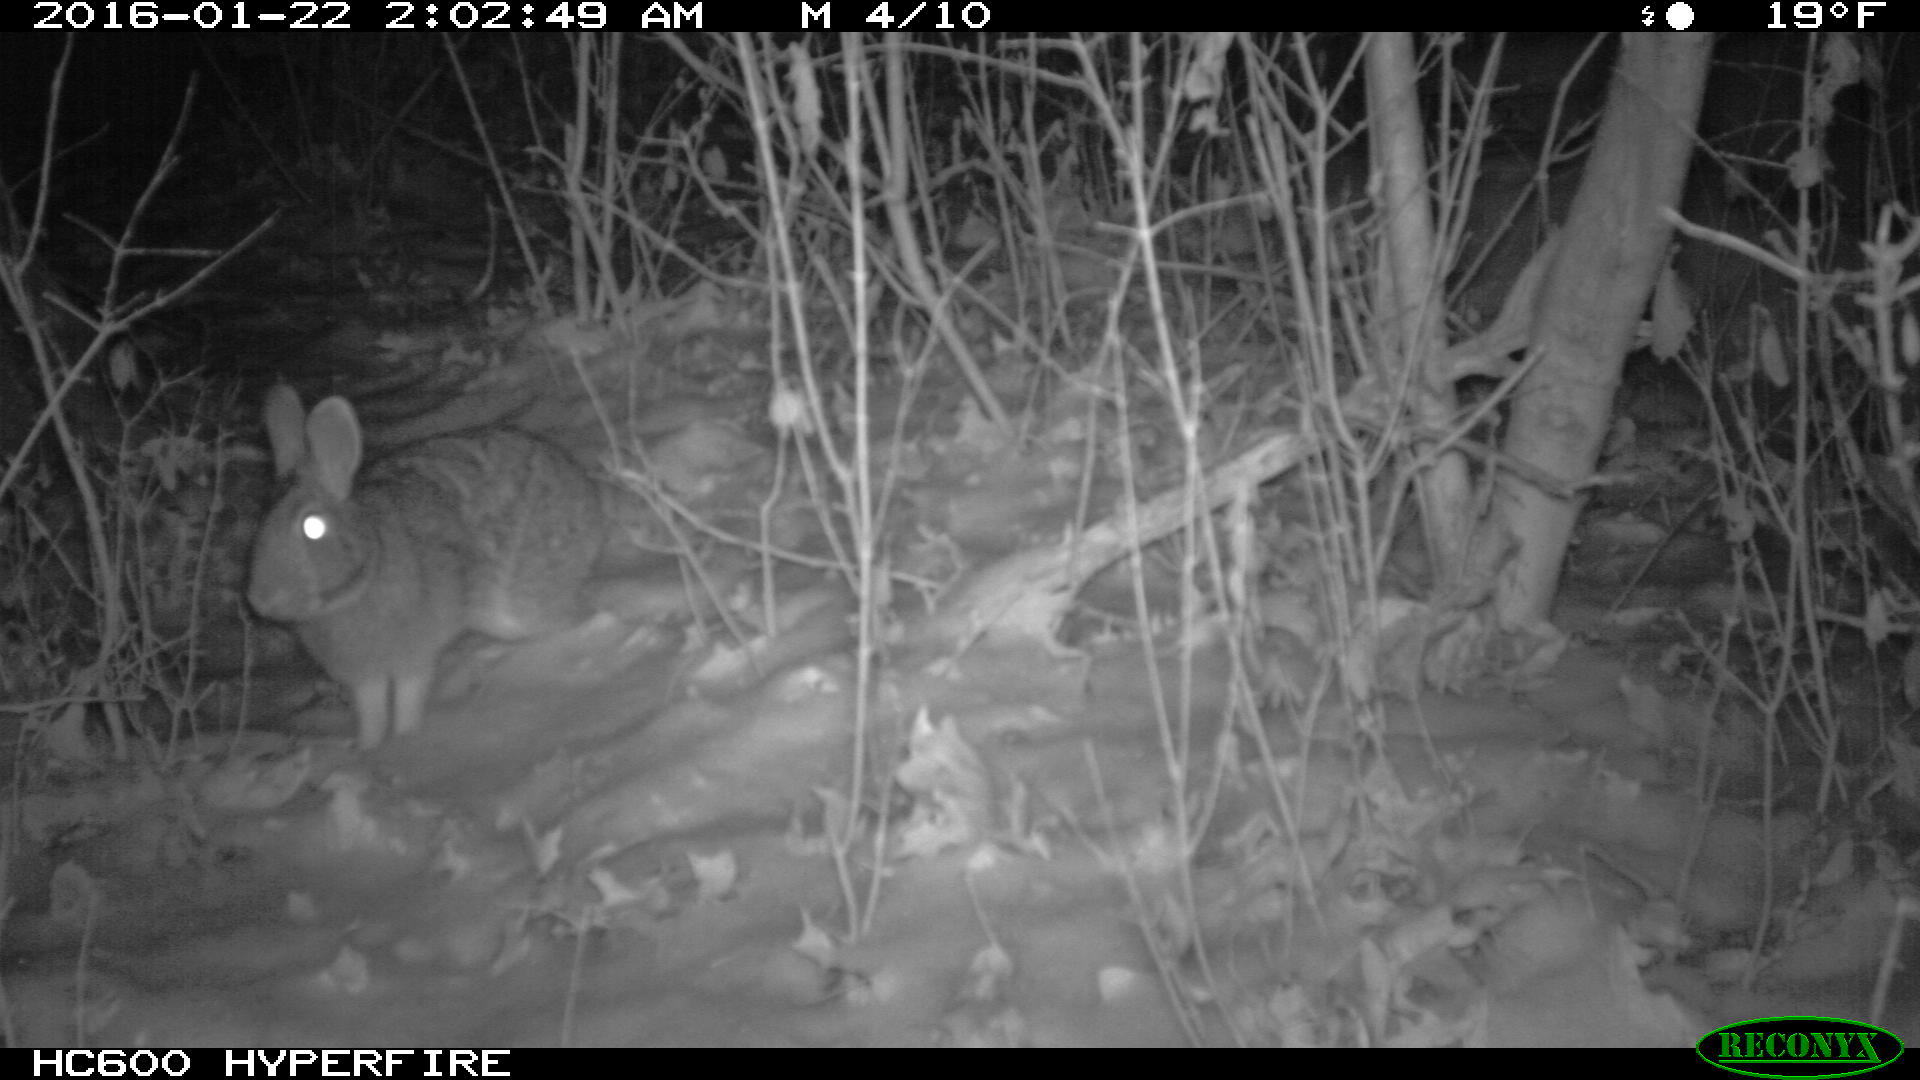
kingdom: Animalia
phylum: Chordata
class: Mammalia
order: Lagomorpha
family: Leporidae
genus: Sylvilagus
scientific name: Sylvilagus floridanus
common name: Eastern cottontail
